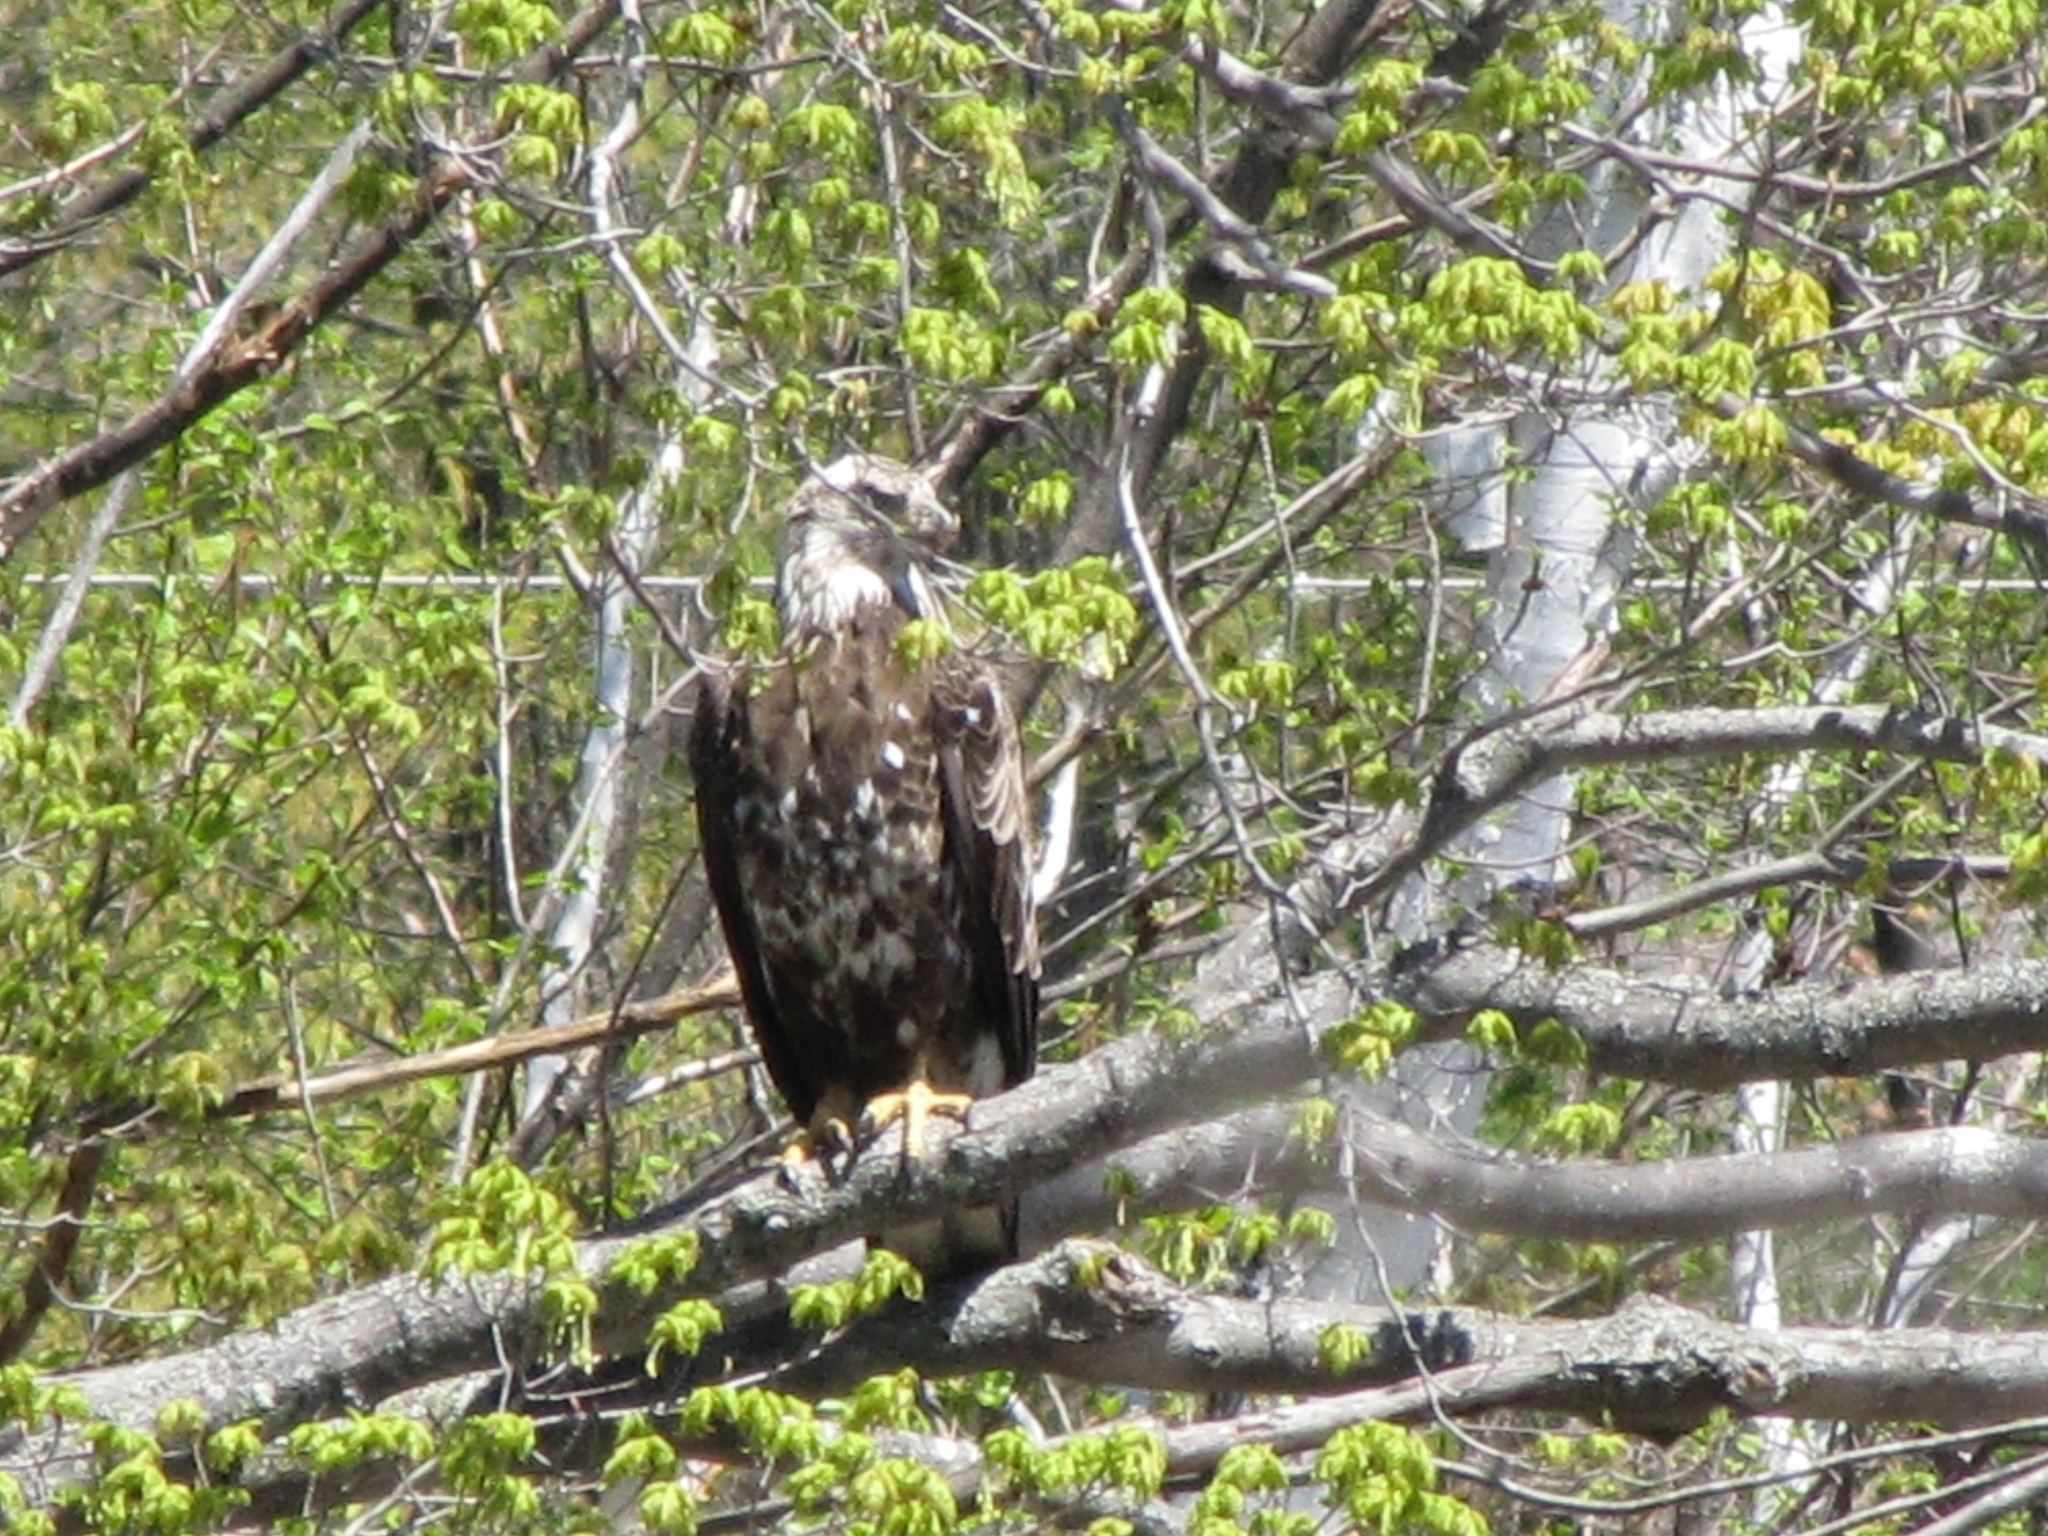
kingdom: Animalia
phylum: Chordata
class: Aves
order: Accipitriformes
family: Accipitridae
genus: Haliaeetus
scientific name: Haliaeetus leucocephalus
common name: Bald eagle
